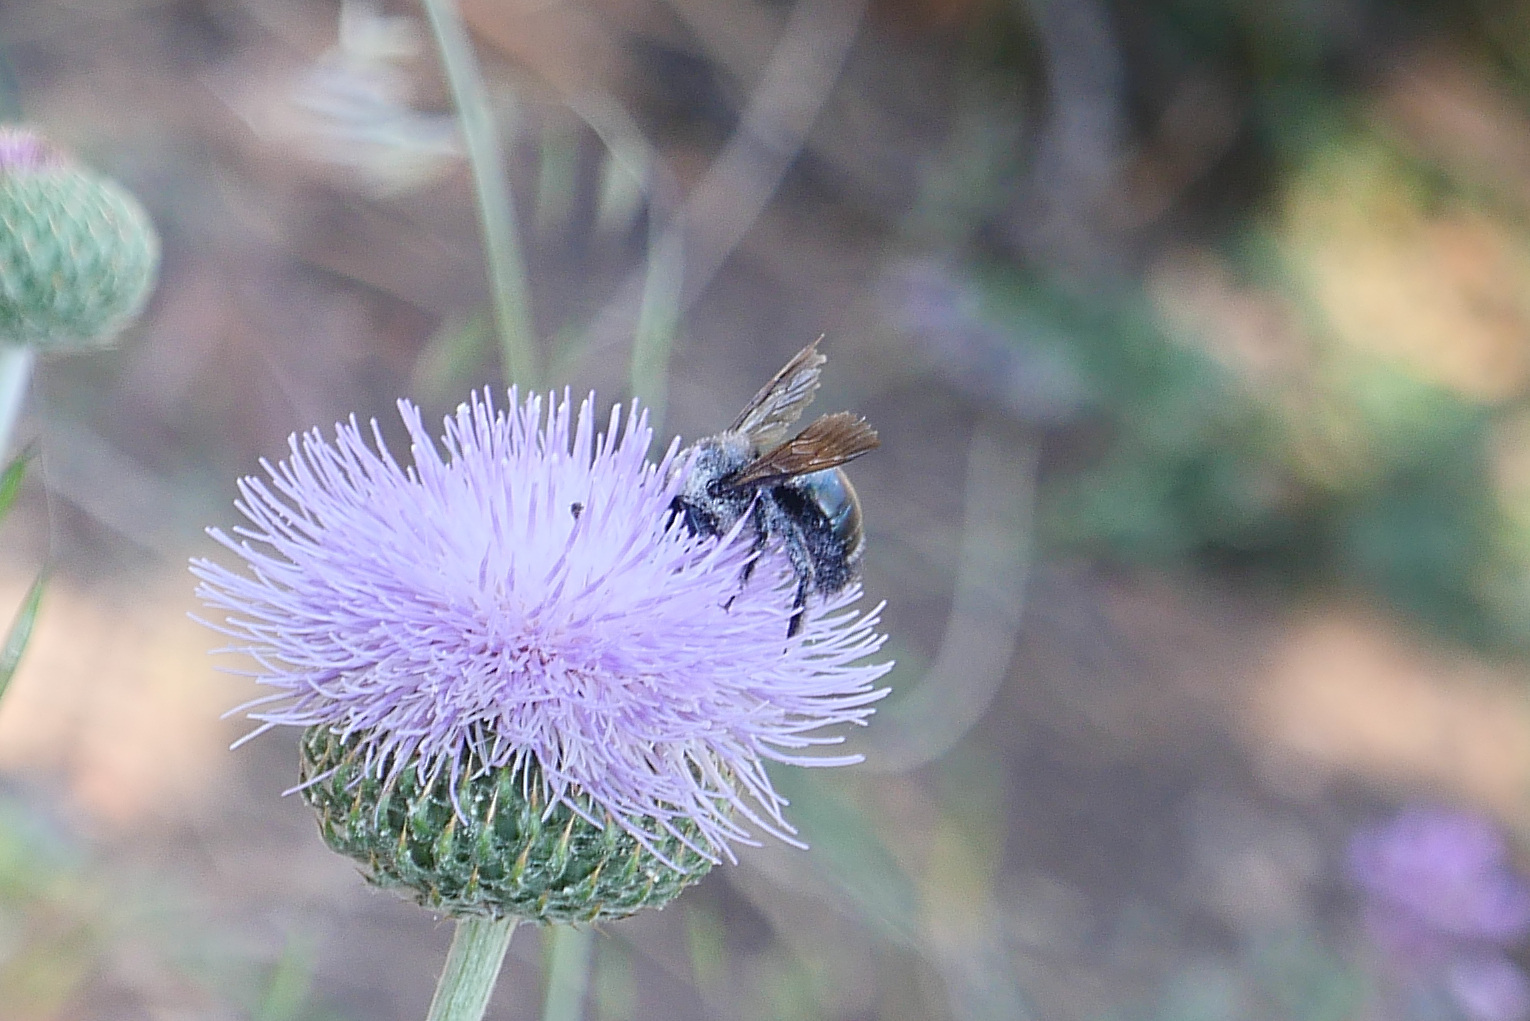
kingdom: Animalia
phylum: Arthropoda
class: Insecta
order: Hymenoptera
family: Apidae
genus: Xylocopa
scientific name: Xylocopa californica
